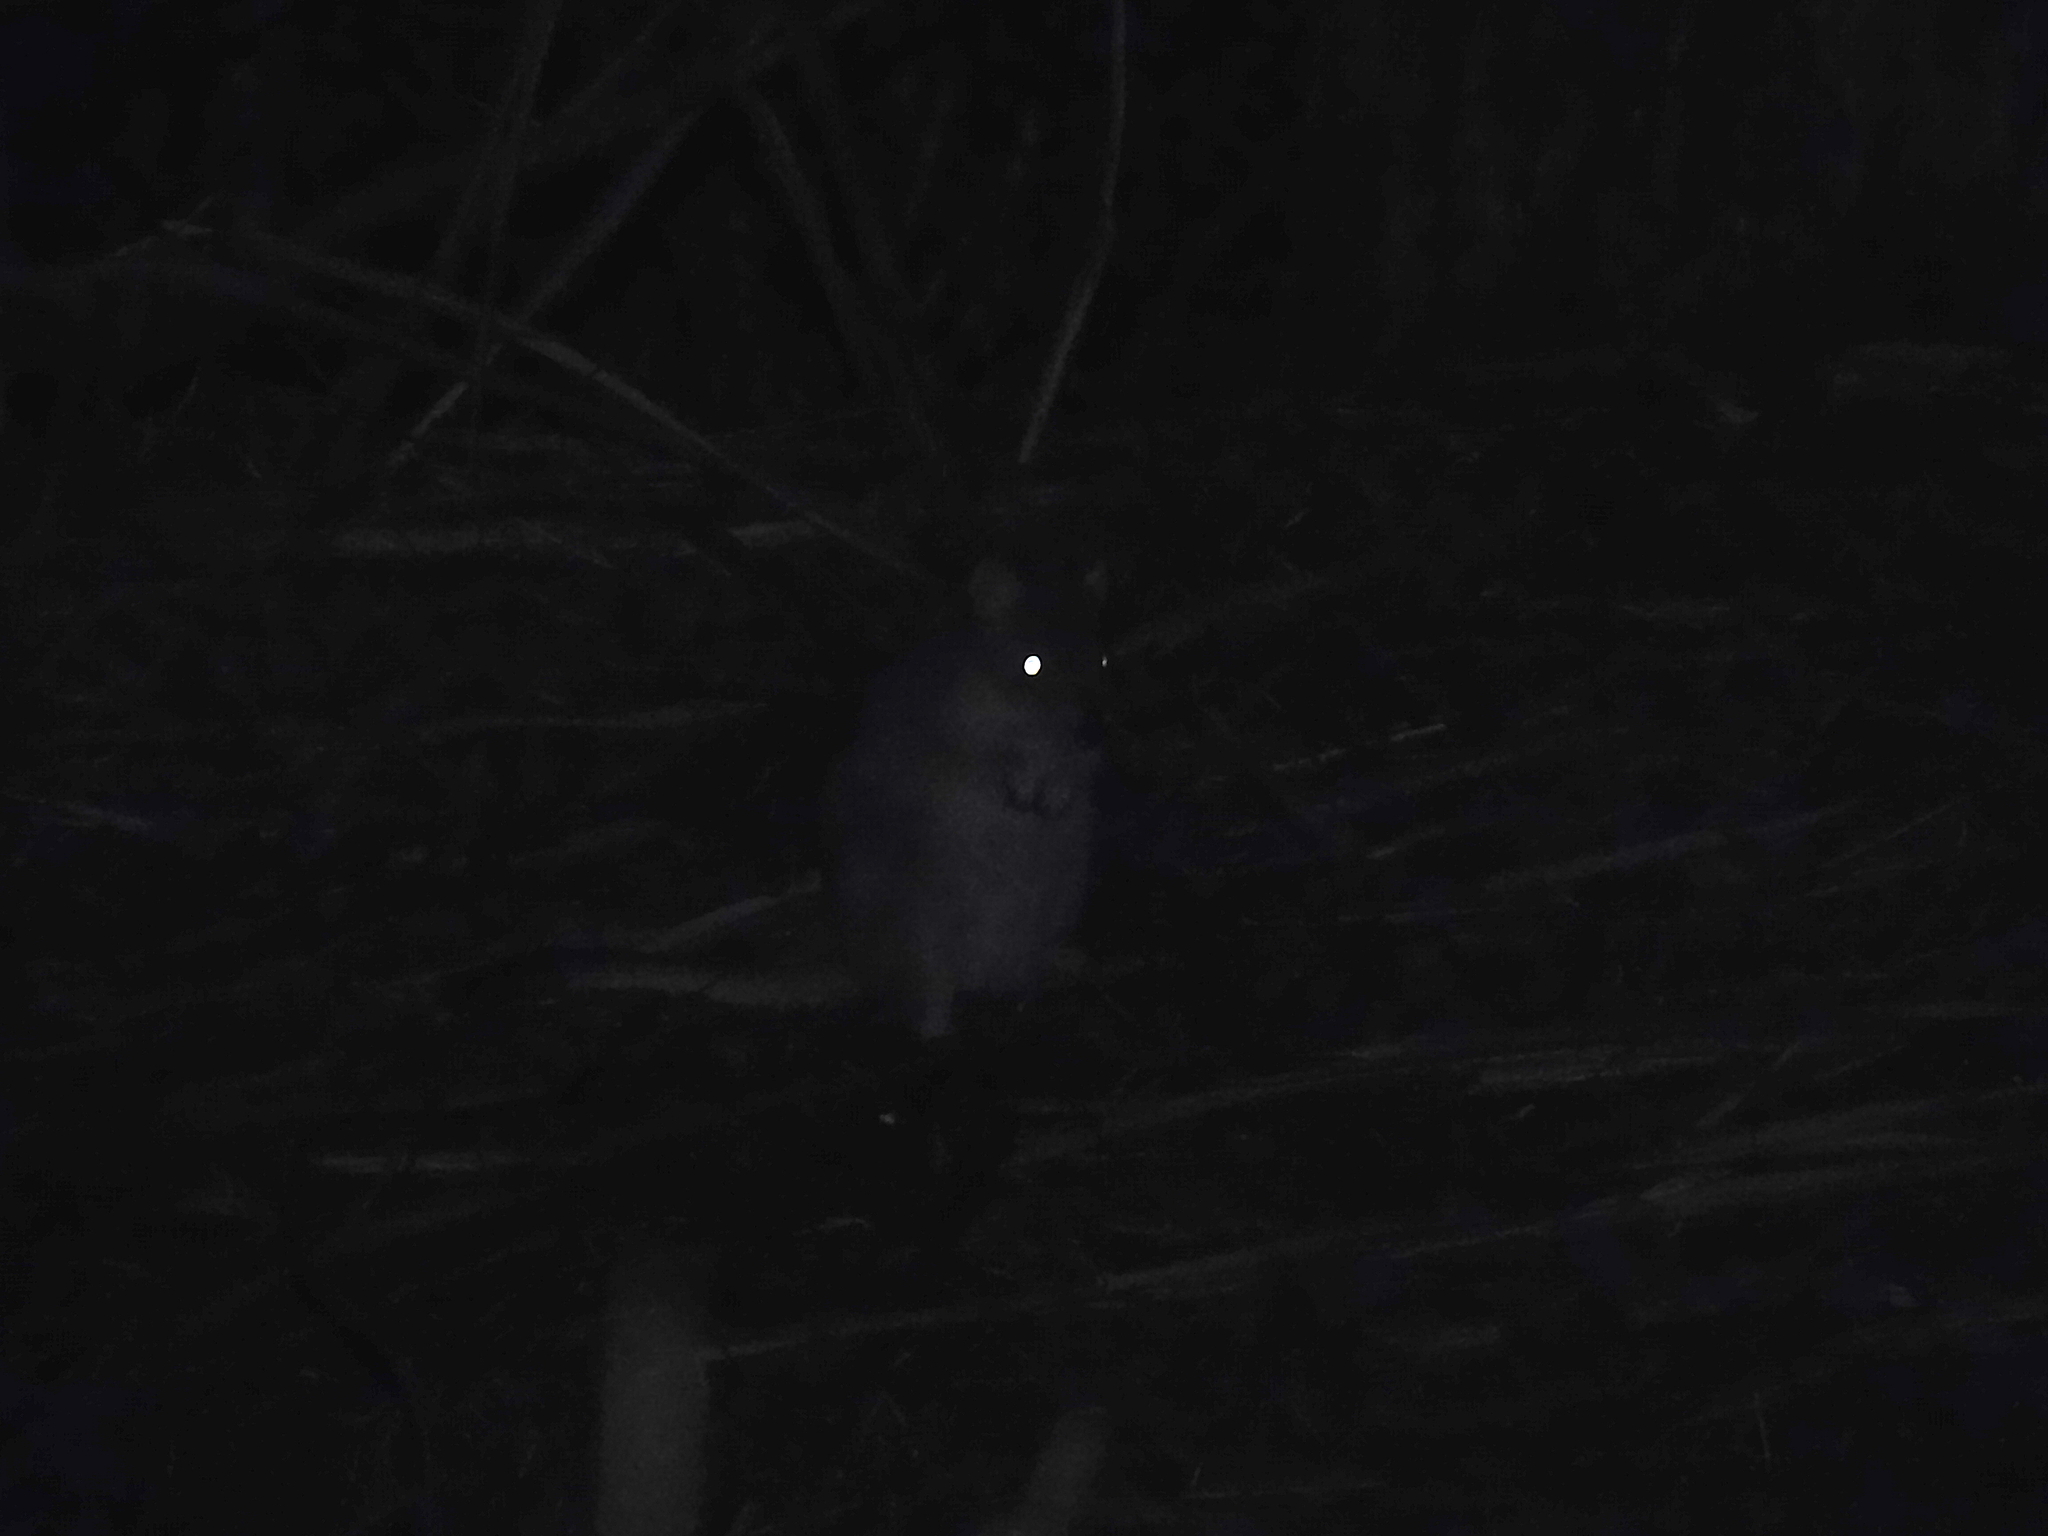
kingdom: Animalia
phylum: Chordata
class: Mammalia
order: Diprotodontia
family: Potoroidae
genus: Bettongia
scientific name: Bettongia gaimardi
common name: Eastern bettong
